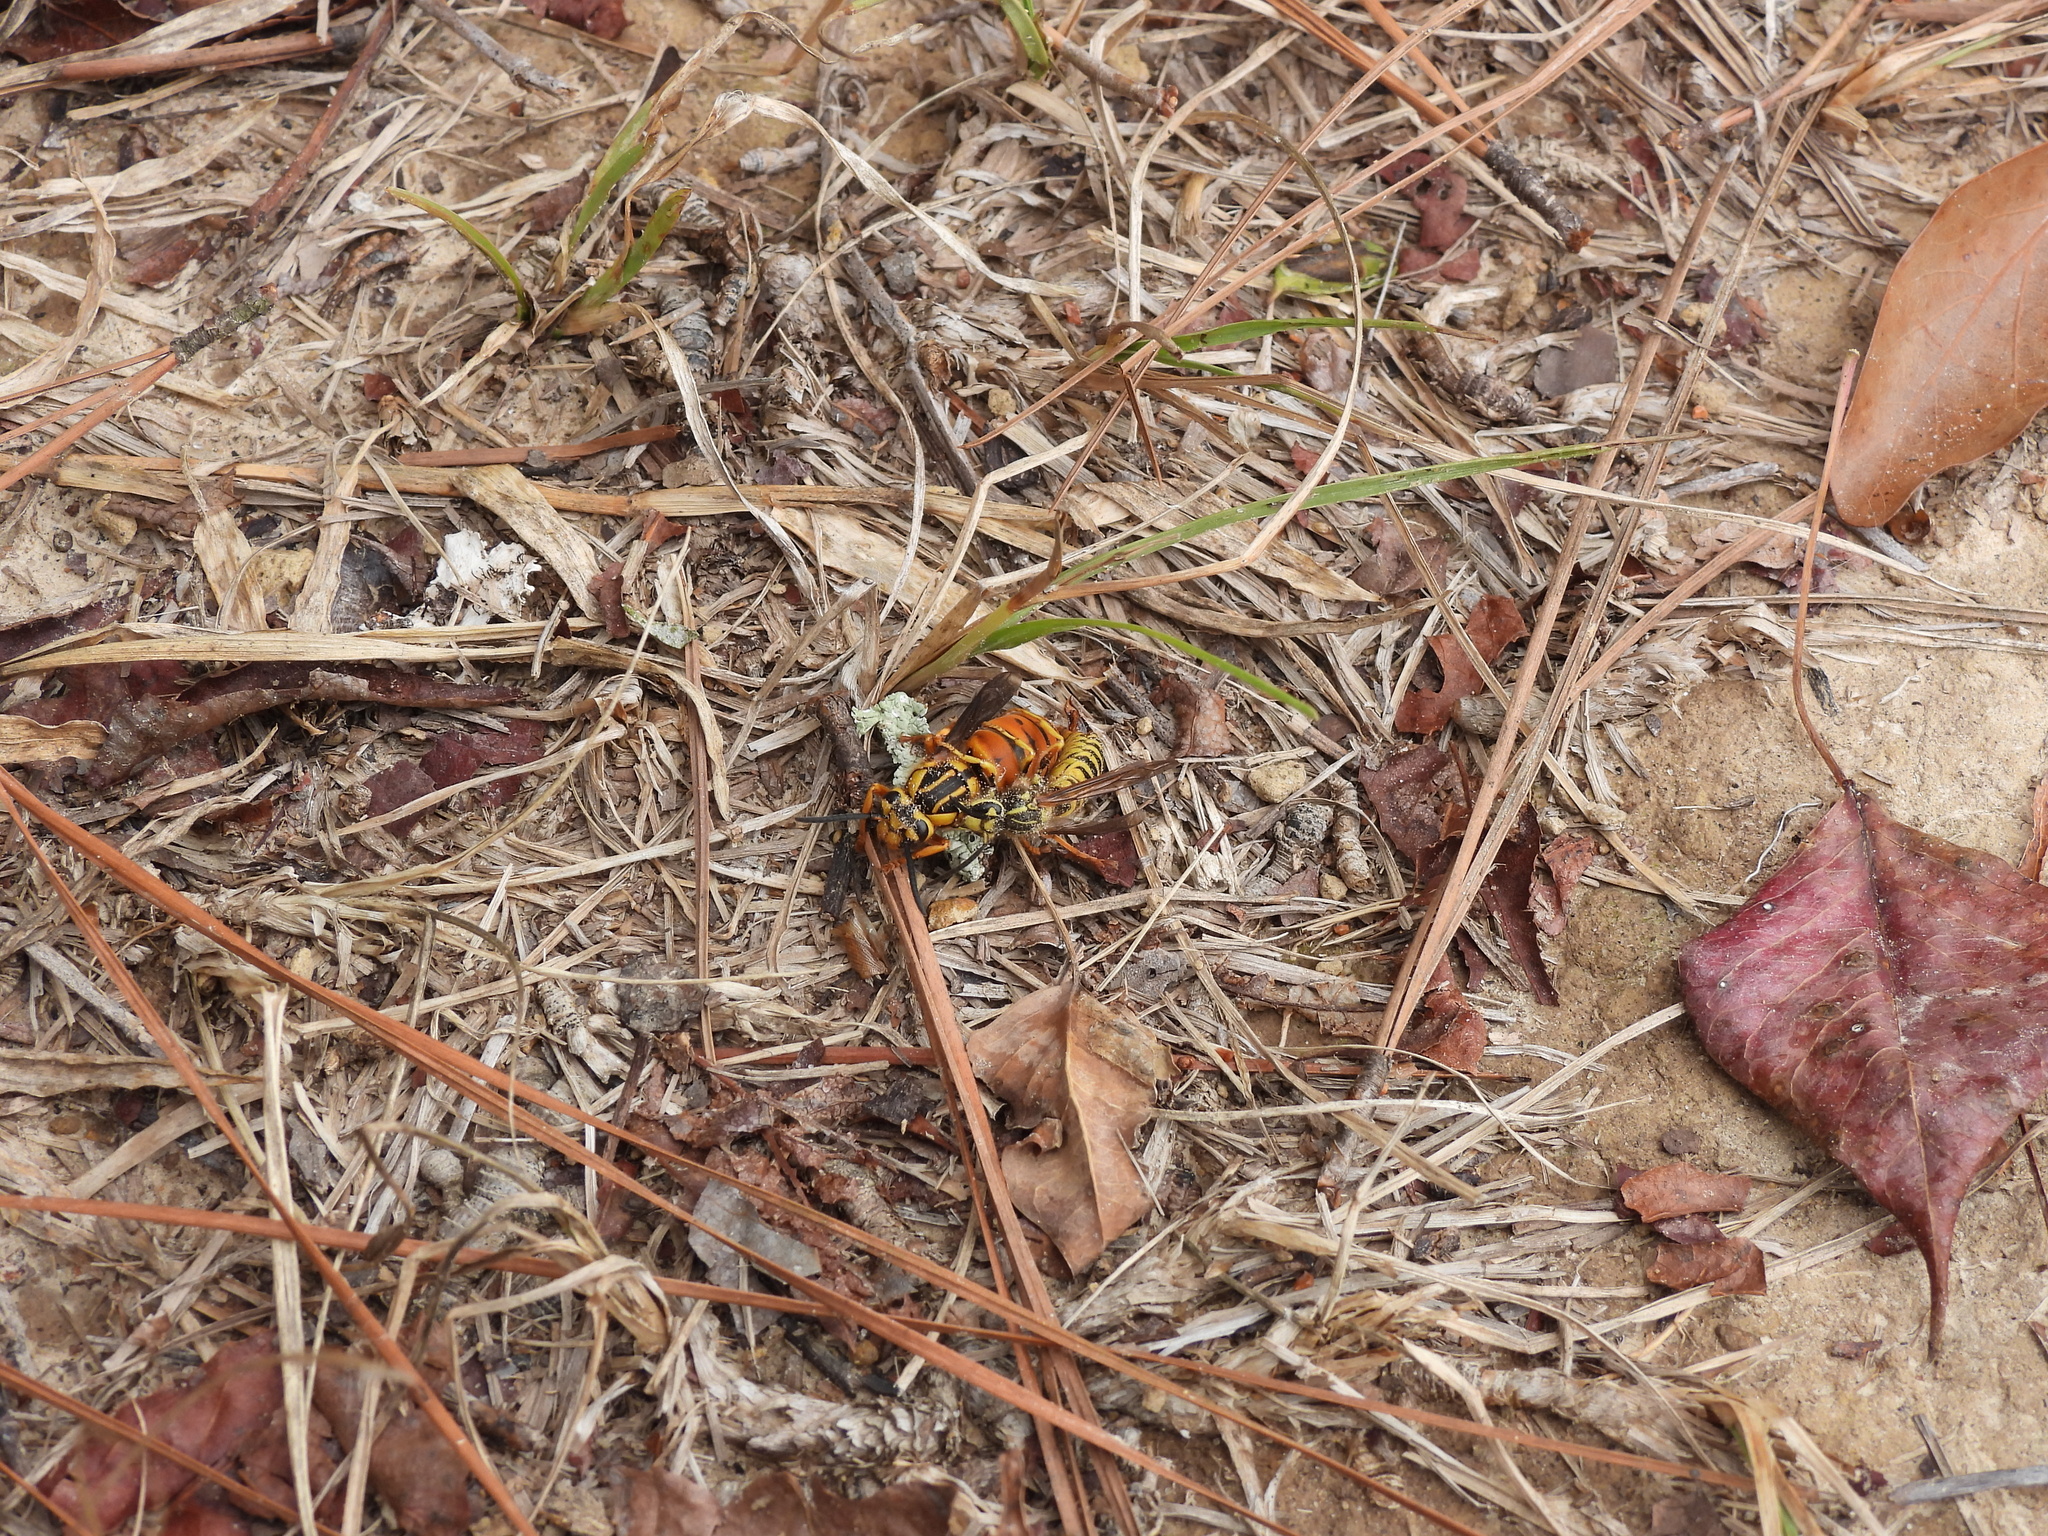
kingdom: Animalia
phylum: Arthropoda
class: Insecta
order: Hymenoptera
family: Vespidae
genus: Vespula
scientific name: Vespula squamosa
